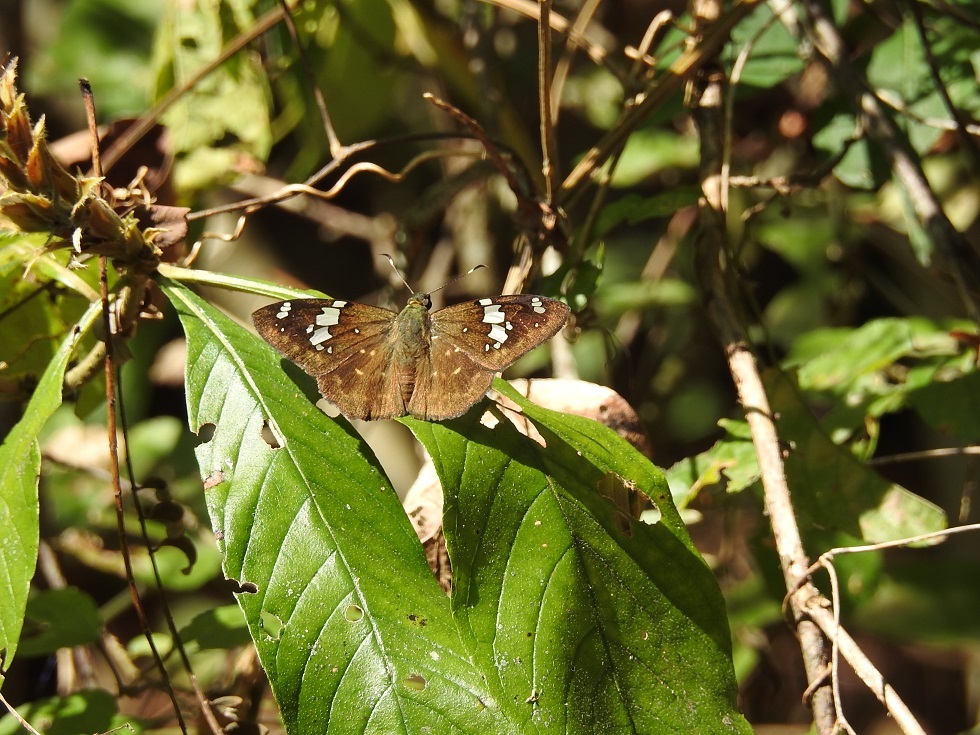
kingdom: Animalia
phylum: Arthropoda
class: Insecta
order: Lepidoptera
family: Hesperiidae
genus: Celaenorrhinus
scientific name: Celaenorrhinus similis
